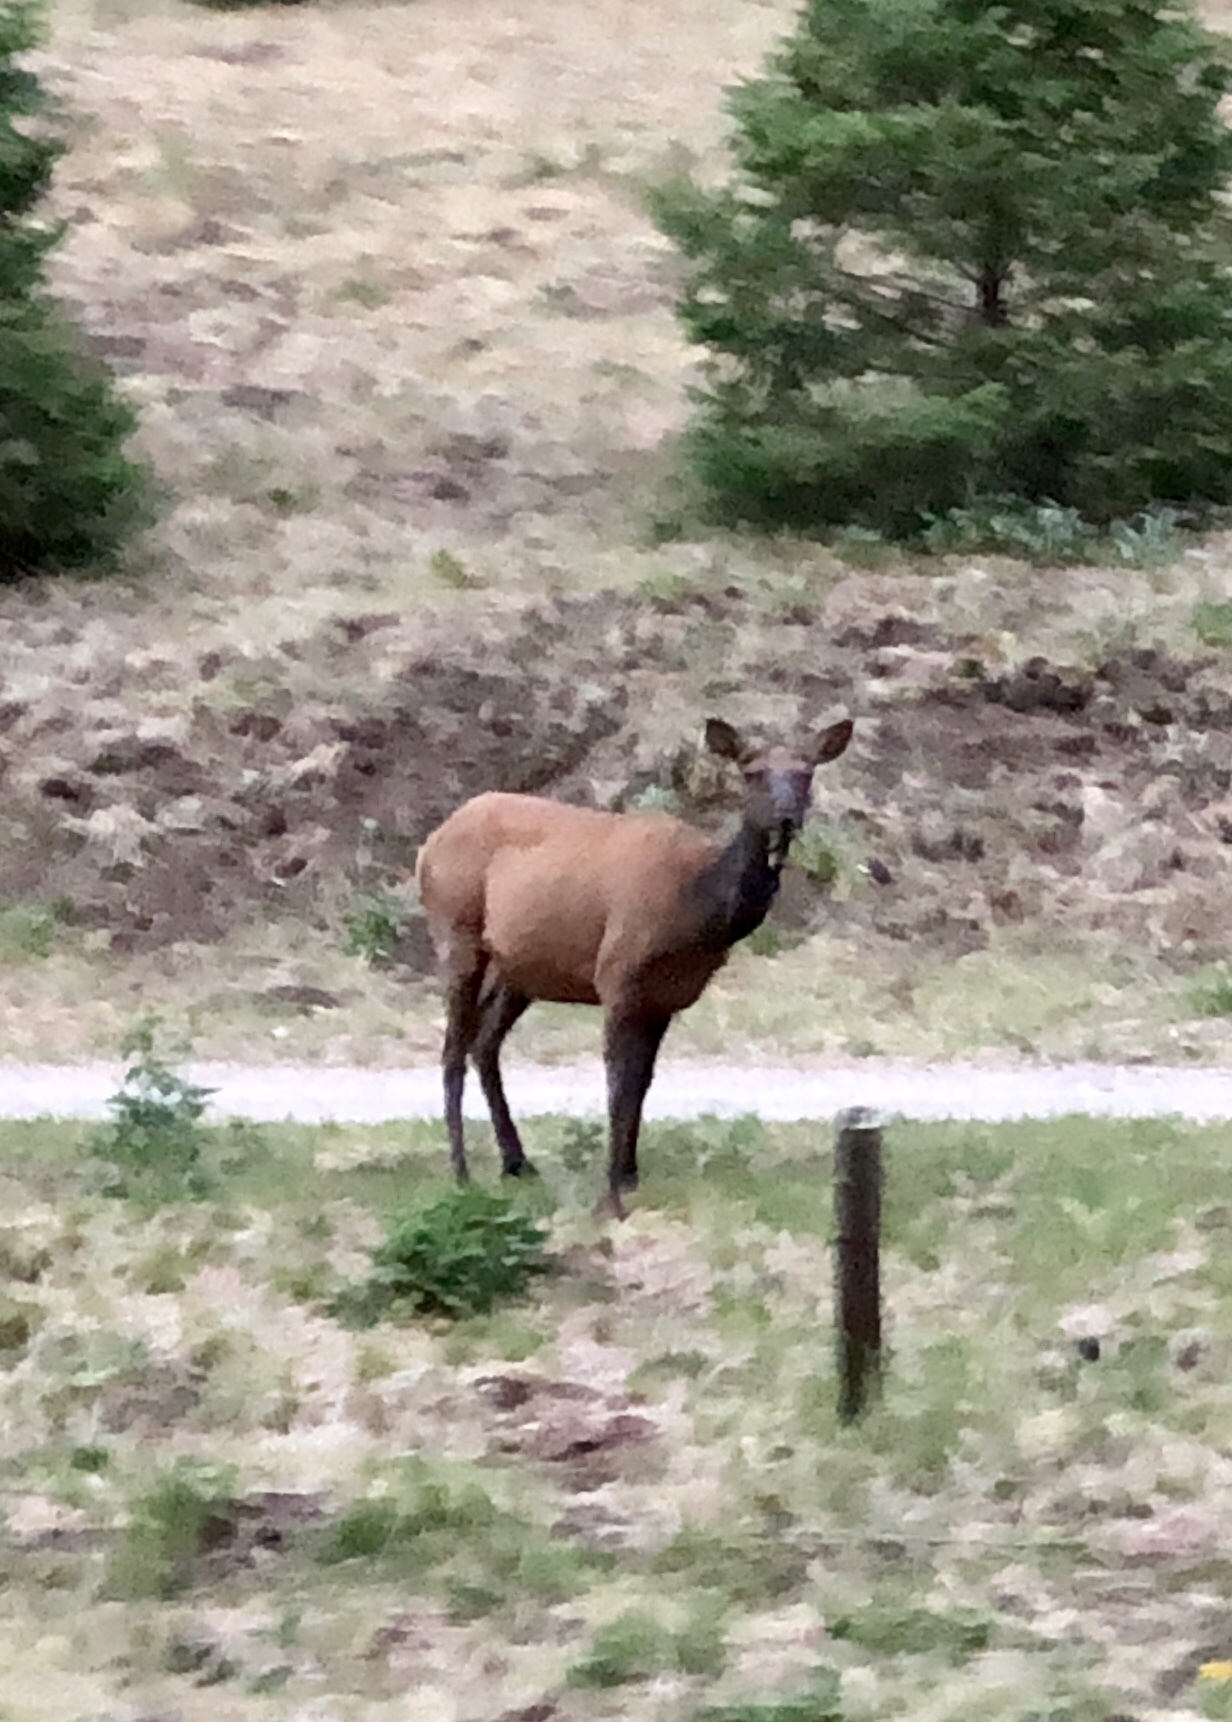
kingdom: Animalia
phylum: Chordata
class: Mammalia
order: Artiodactyla
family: Cervidae
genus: Cervus
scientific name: Cervus elaphus
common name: Red deer
